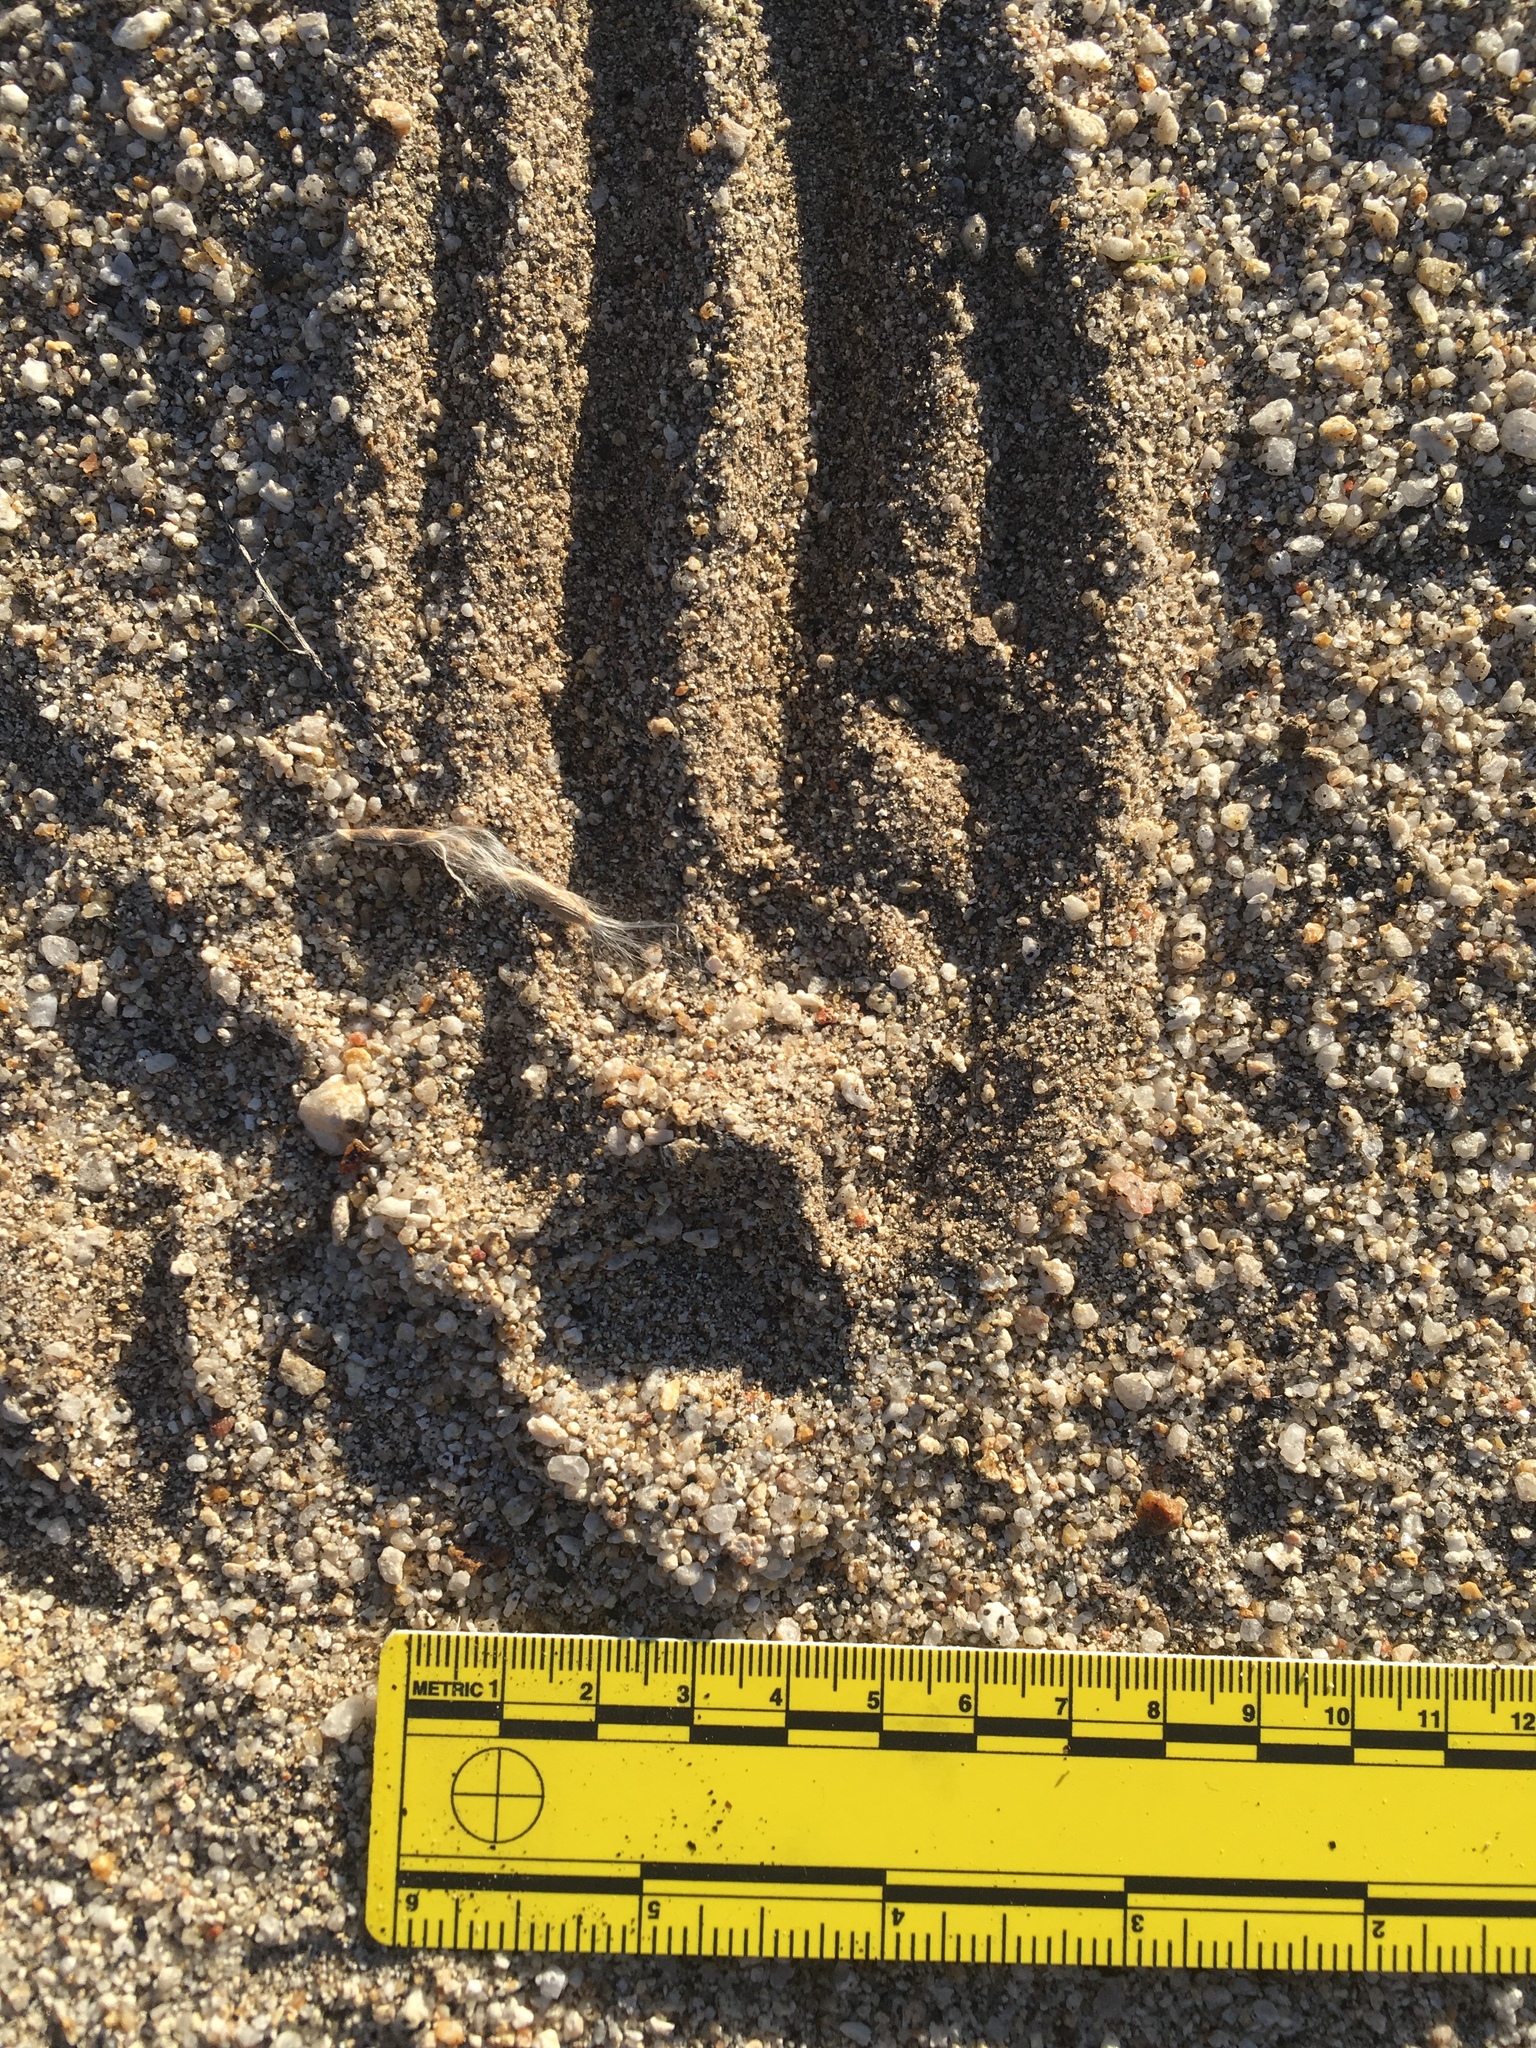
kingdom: Animalia
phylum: Chordata
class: Mammalia
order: Carnivora
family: Felidae
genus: Lynx
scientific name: Lynx rufus
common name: Bobcat
